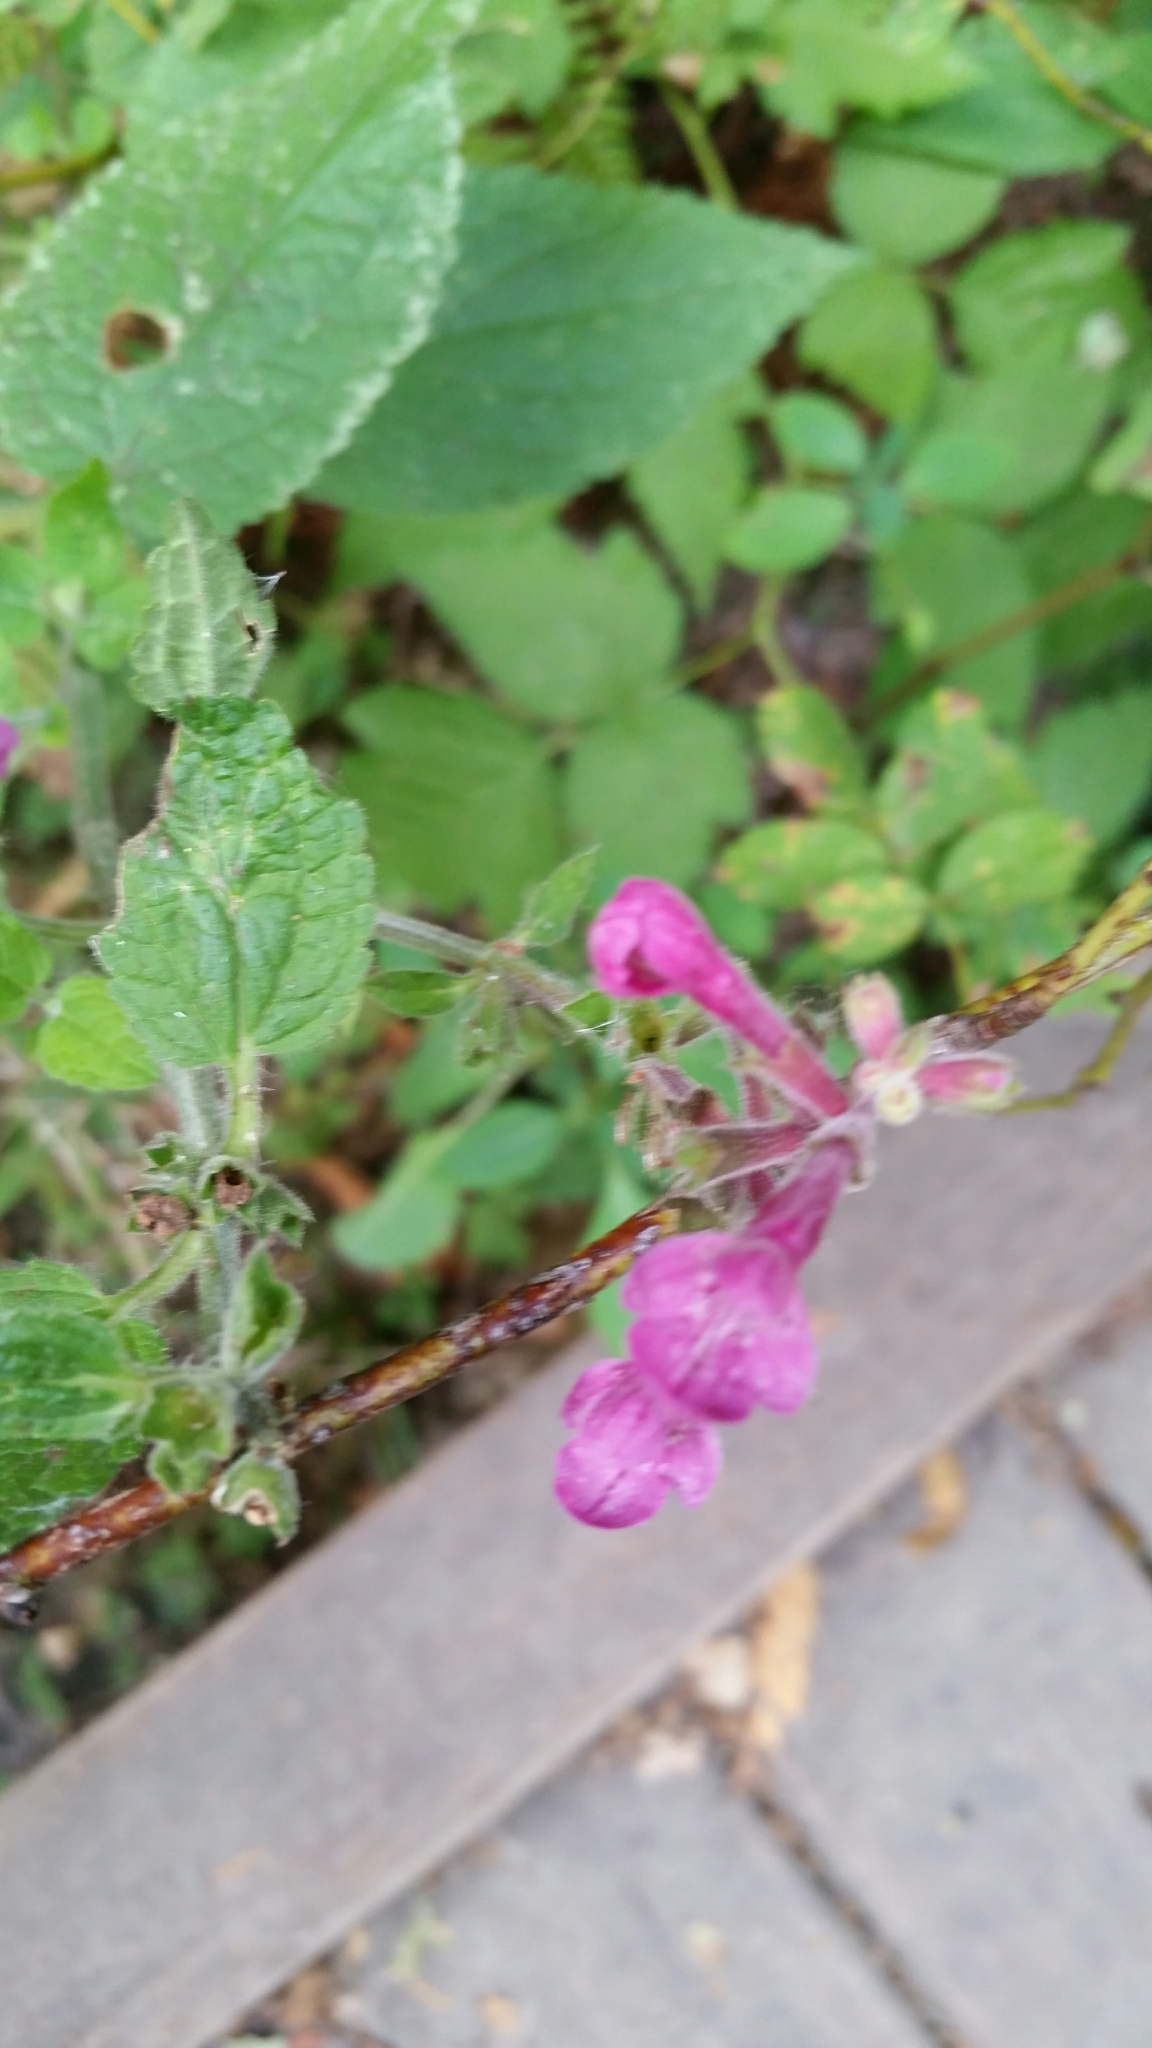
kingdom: Plantae
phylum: Tracheophyta
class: Magnoliopsida
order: Lamiales
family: Lamiaceae
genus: Stachys
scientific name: Stachys chamissonis
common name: Coastal hedge-nettle
